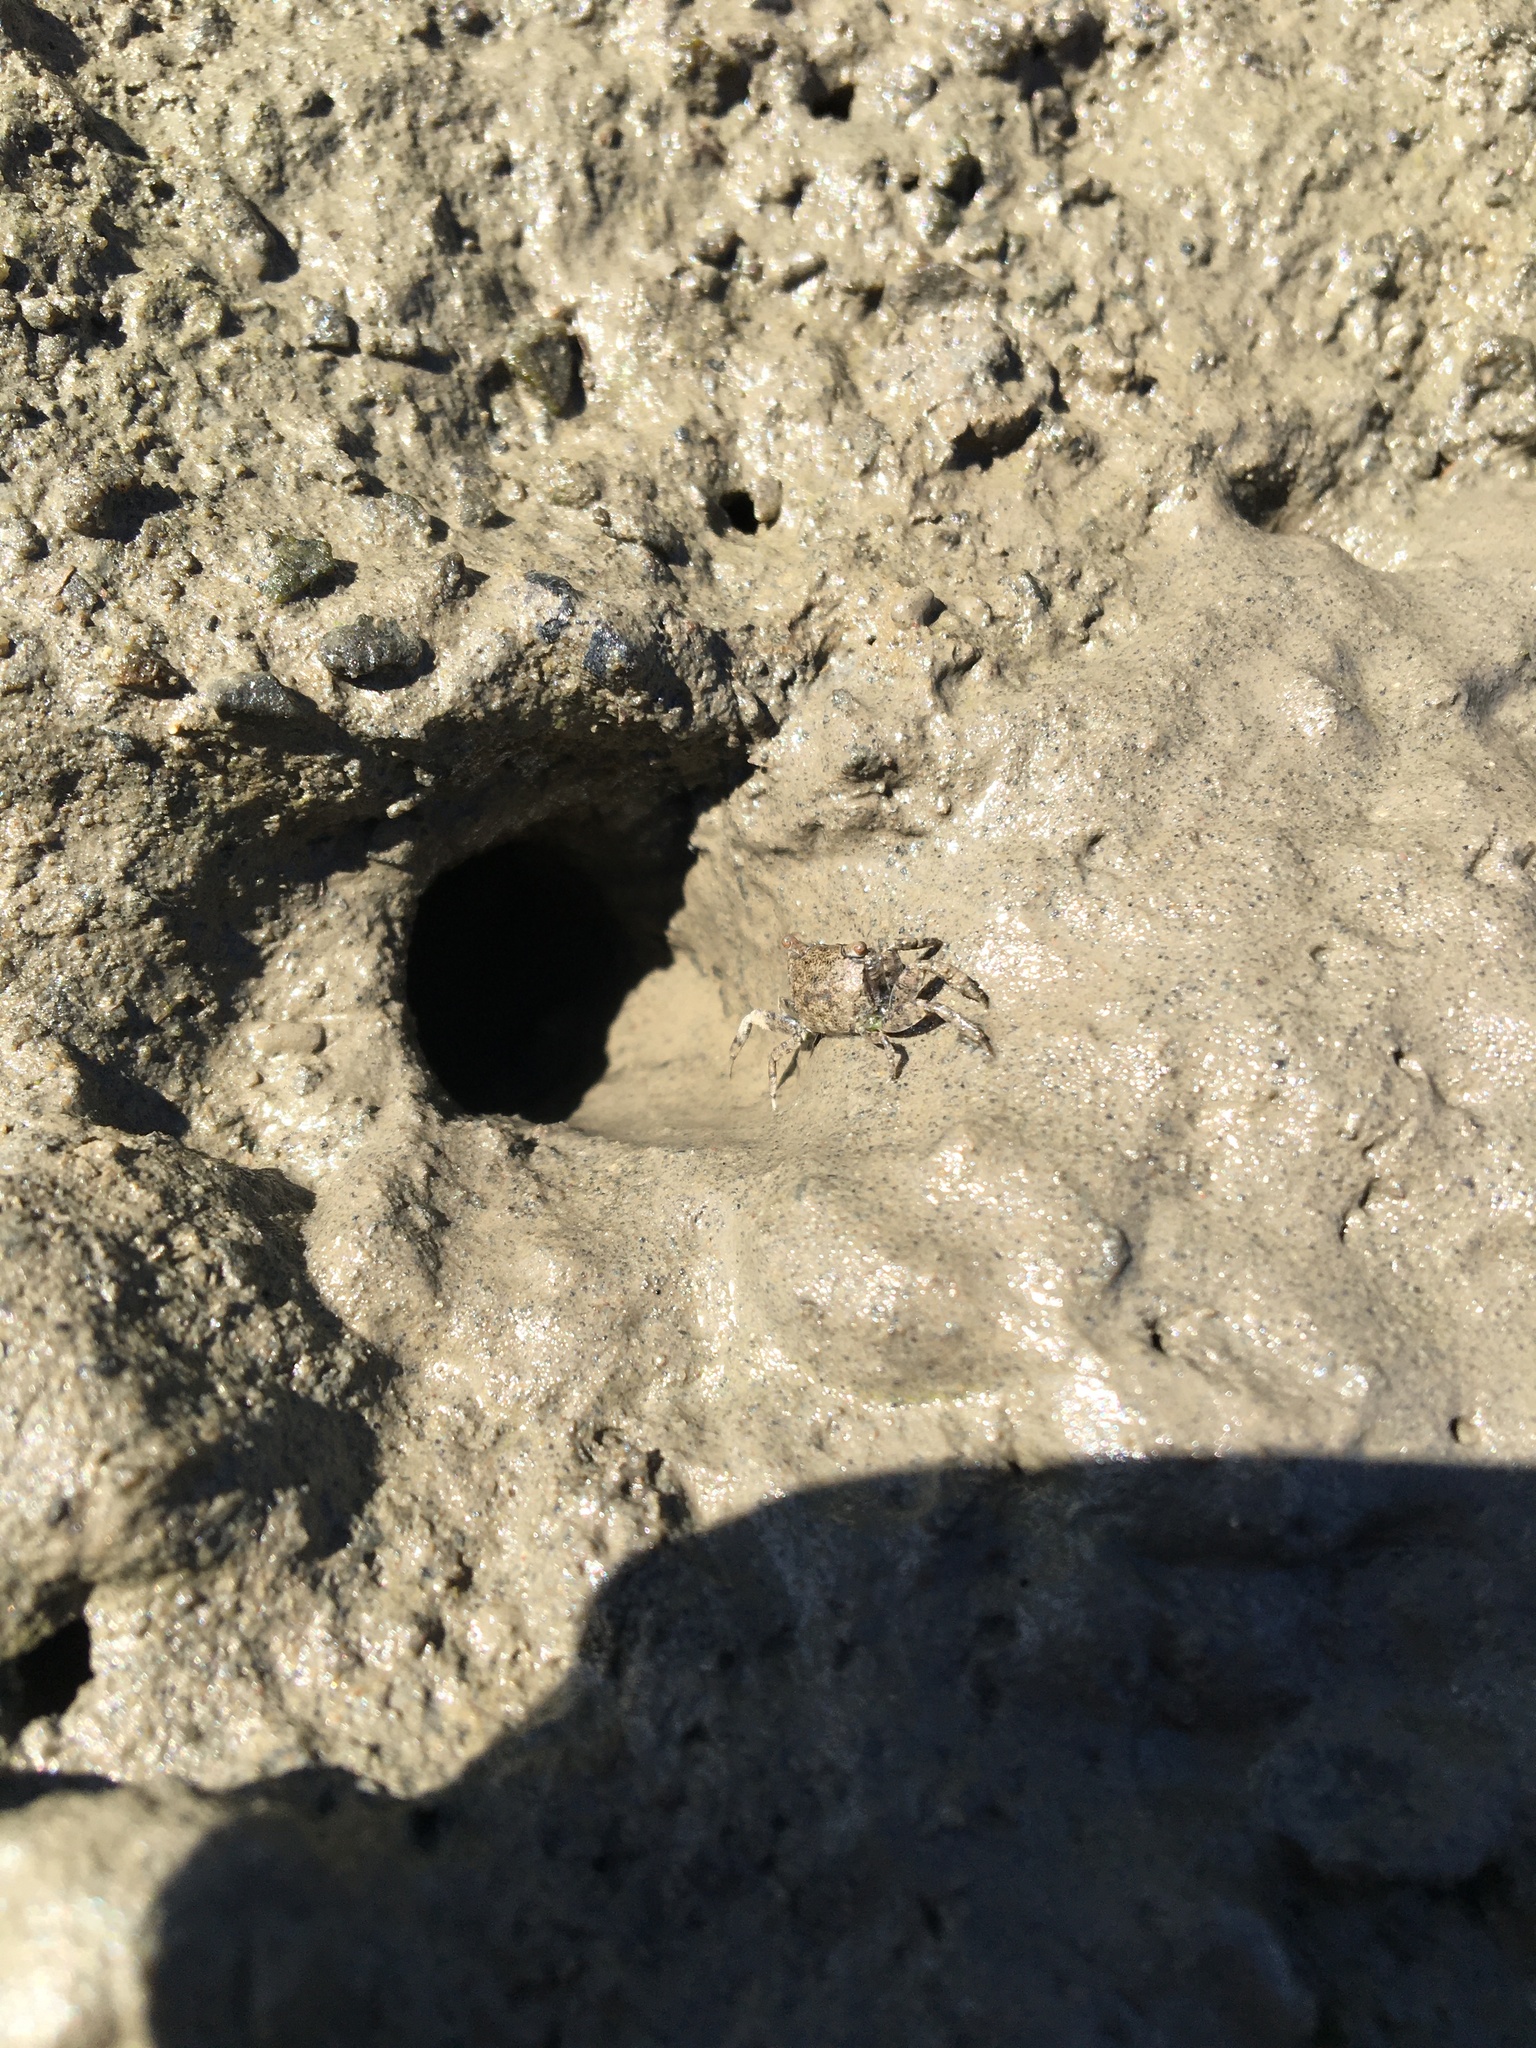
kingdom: Animalia
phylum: Arthropoda
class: Malacostraca
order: Decapoda
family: Varunidae
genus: Austrohelice
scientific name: Austrohelice crassa
